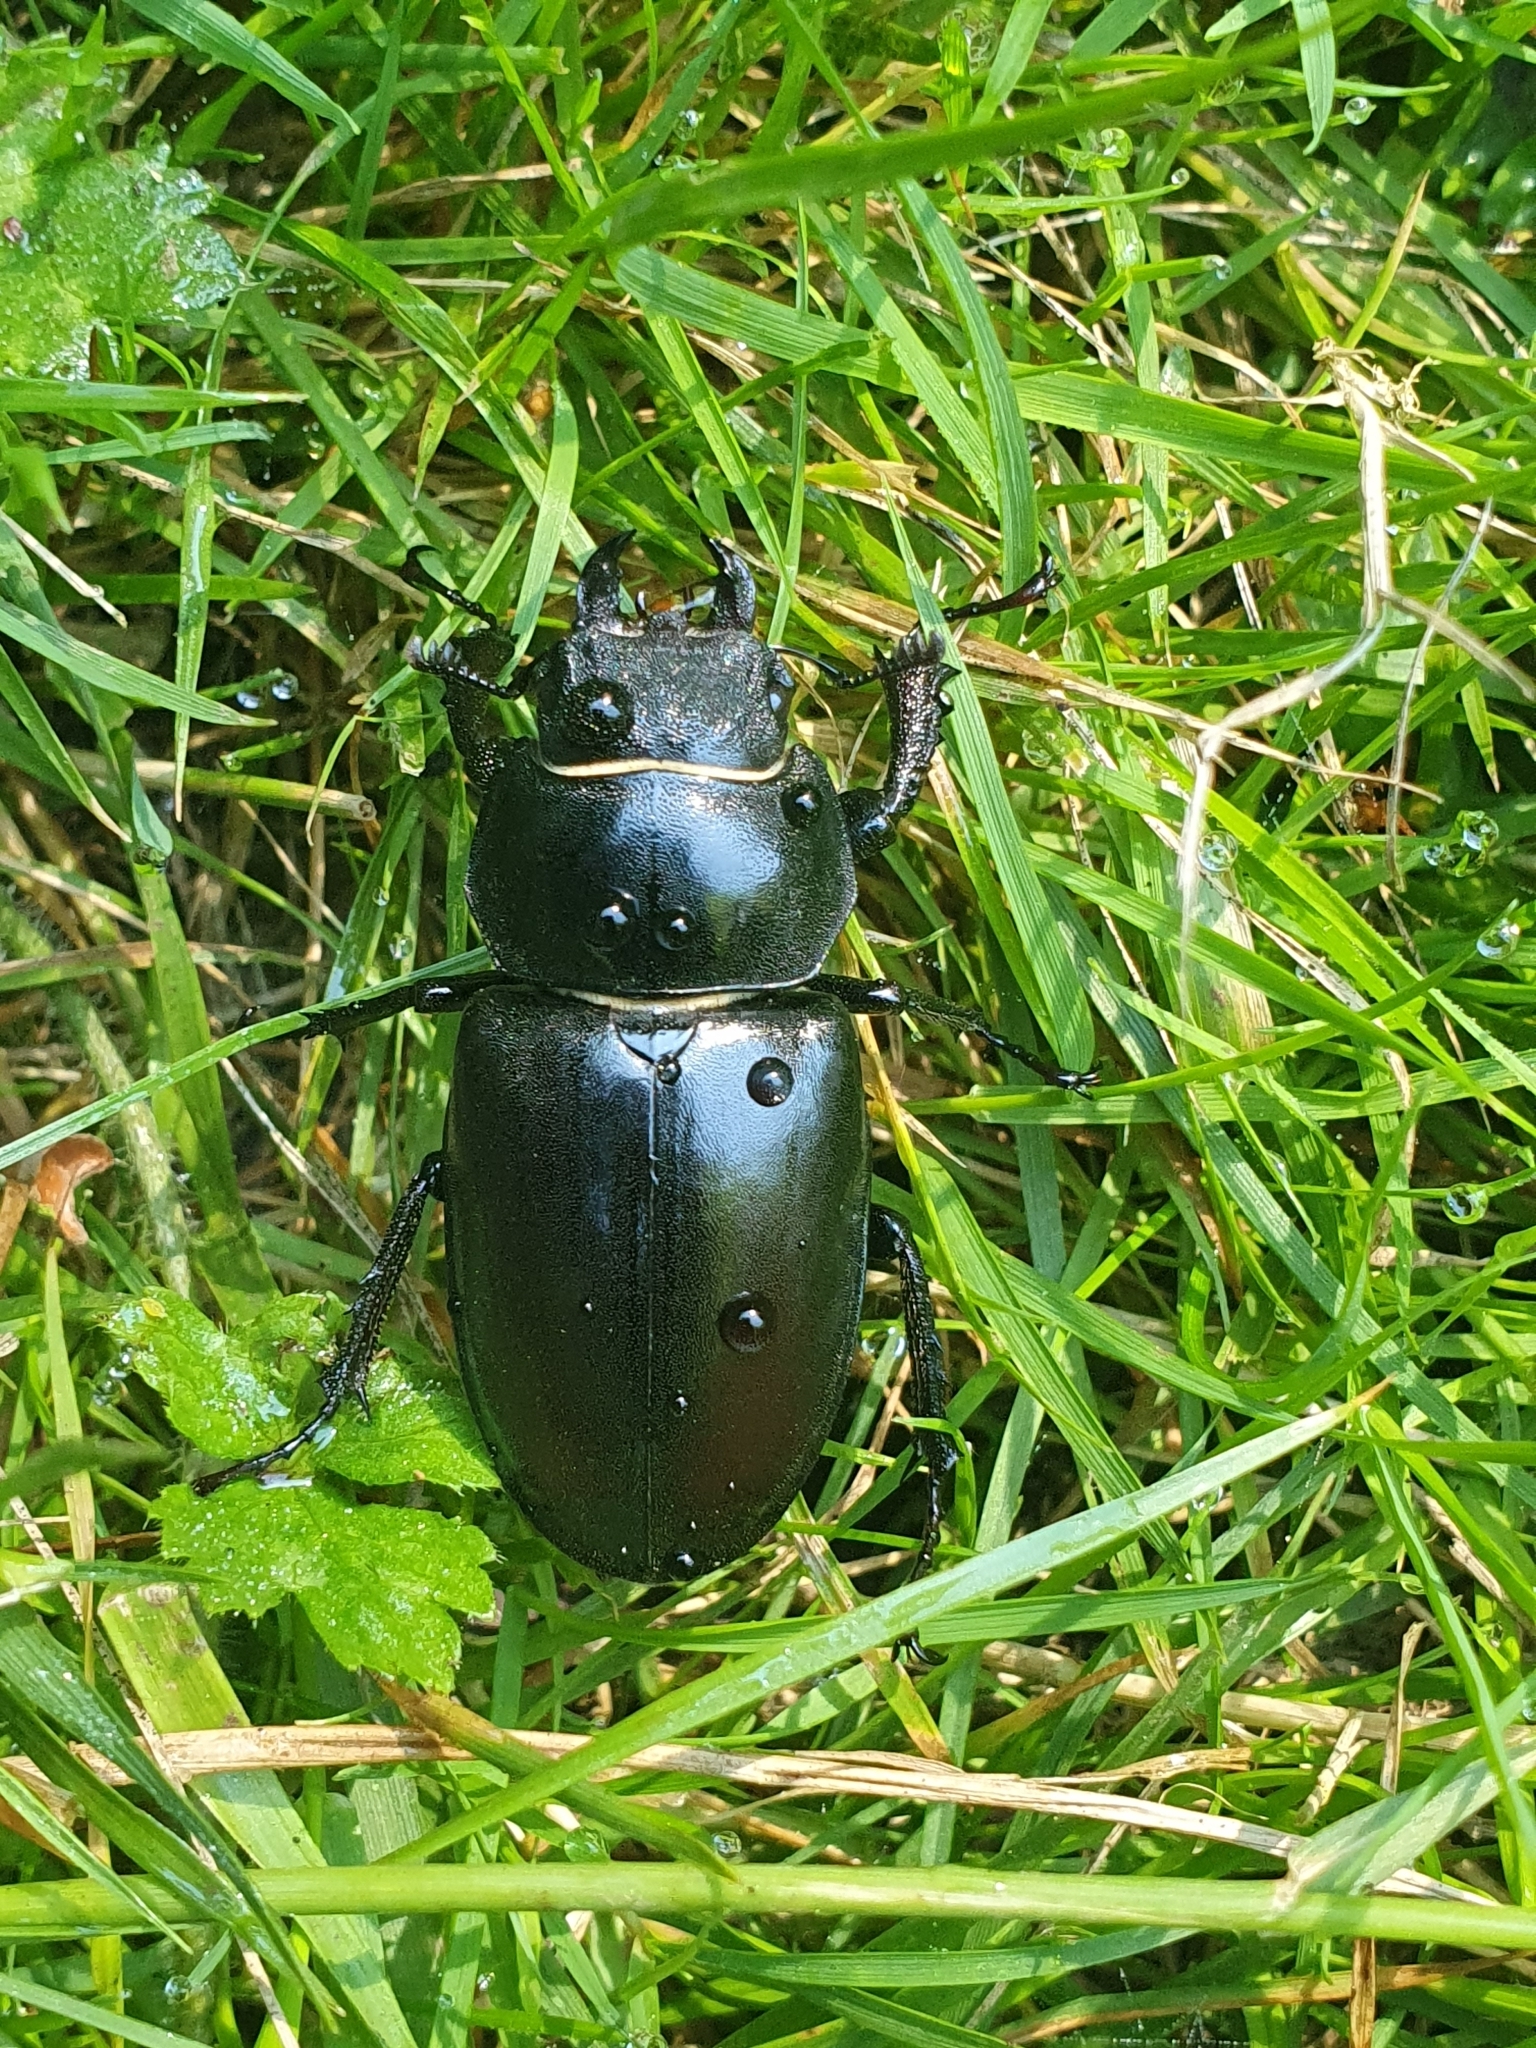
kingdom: Animalia
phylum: Arthropoda
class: Insecta
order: Coleoptera
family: Lucanidae
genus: Lucanus
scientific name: Lucanus cervus
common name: Stag beetle
